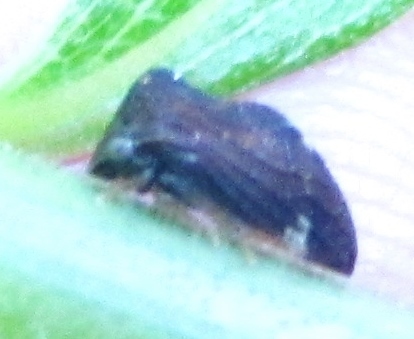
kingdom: Animalia
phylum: Arthropoda
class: Insecta
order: Hemiptera
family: Membracidae
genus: Publilia
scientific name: Publilia concava
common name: Aster treehopper
